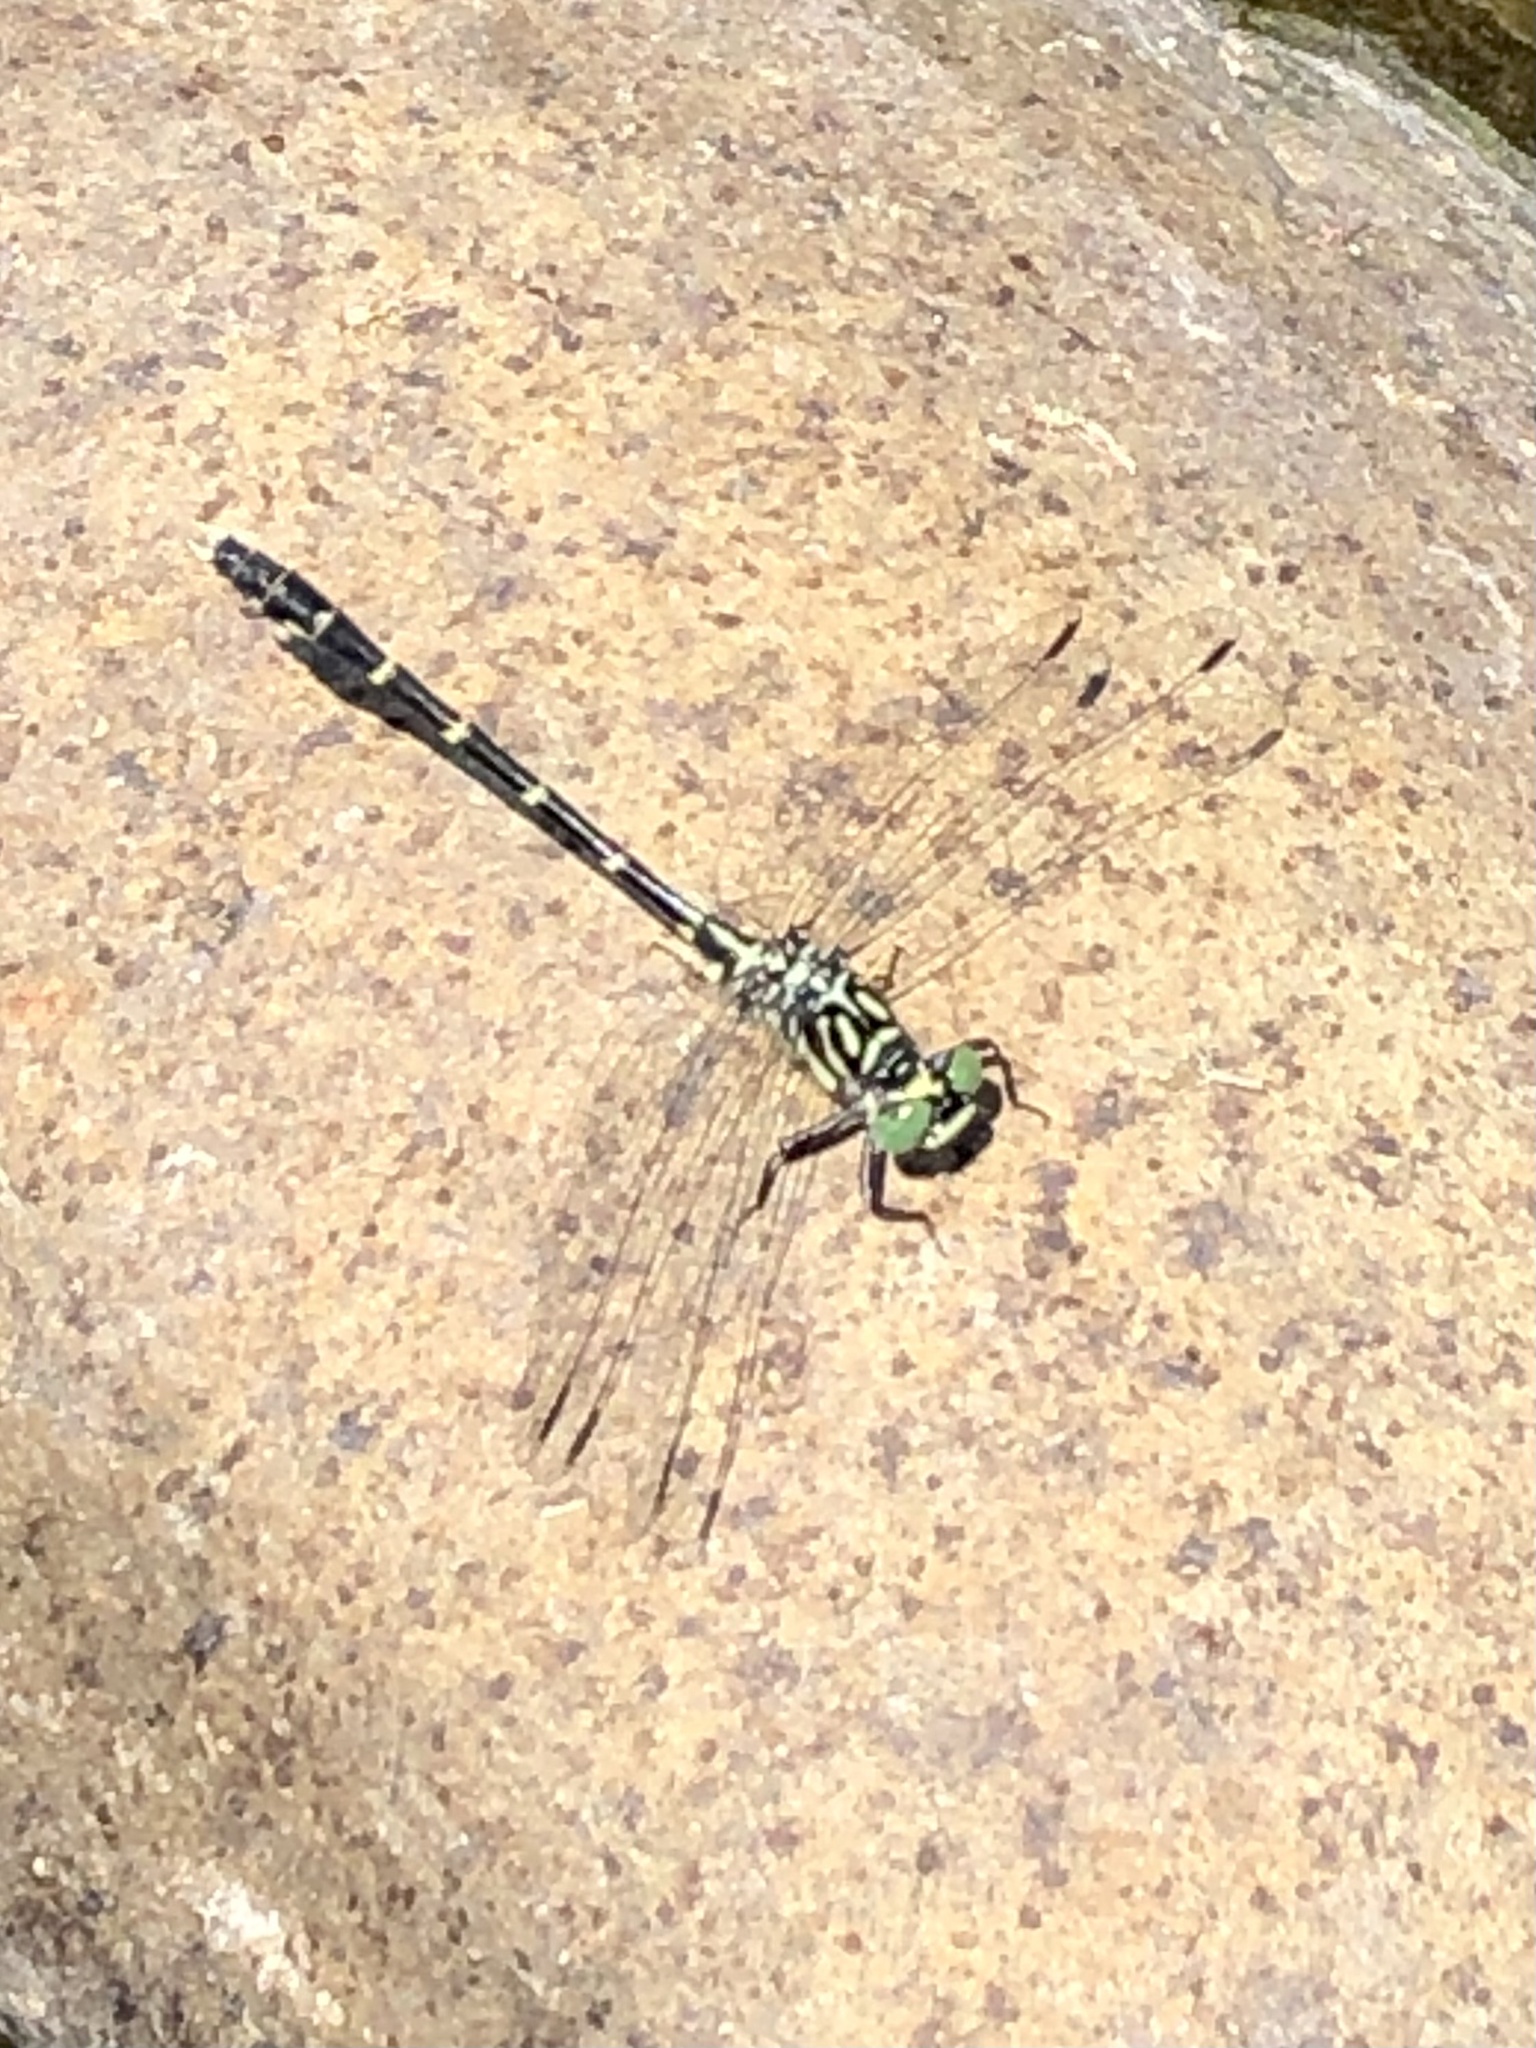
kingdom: Animalia
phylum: Arthropoda
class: Insecta
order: Odonata
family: Gomphidae
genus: Stylogomphus
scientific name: Stylogomphus albistylus
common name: Eastern least clubtail
